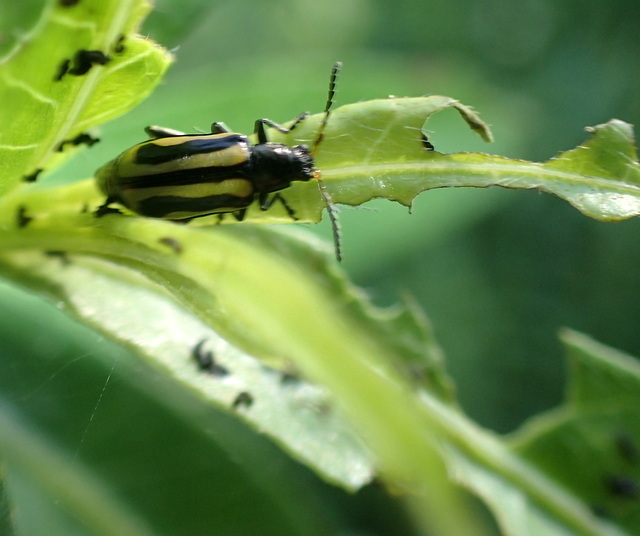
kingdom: Animalia
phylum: Arthropoda
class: Insecta
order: Coleoptera
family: Chrysomelidae
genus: Agasicles
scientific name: Agasicles hygrophila
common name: Alligatorweed flea beetle
